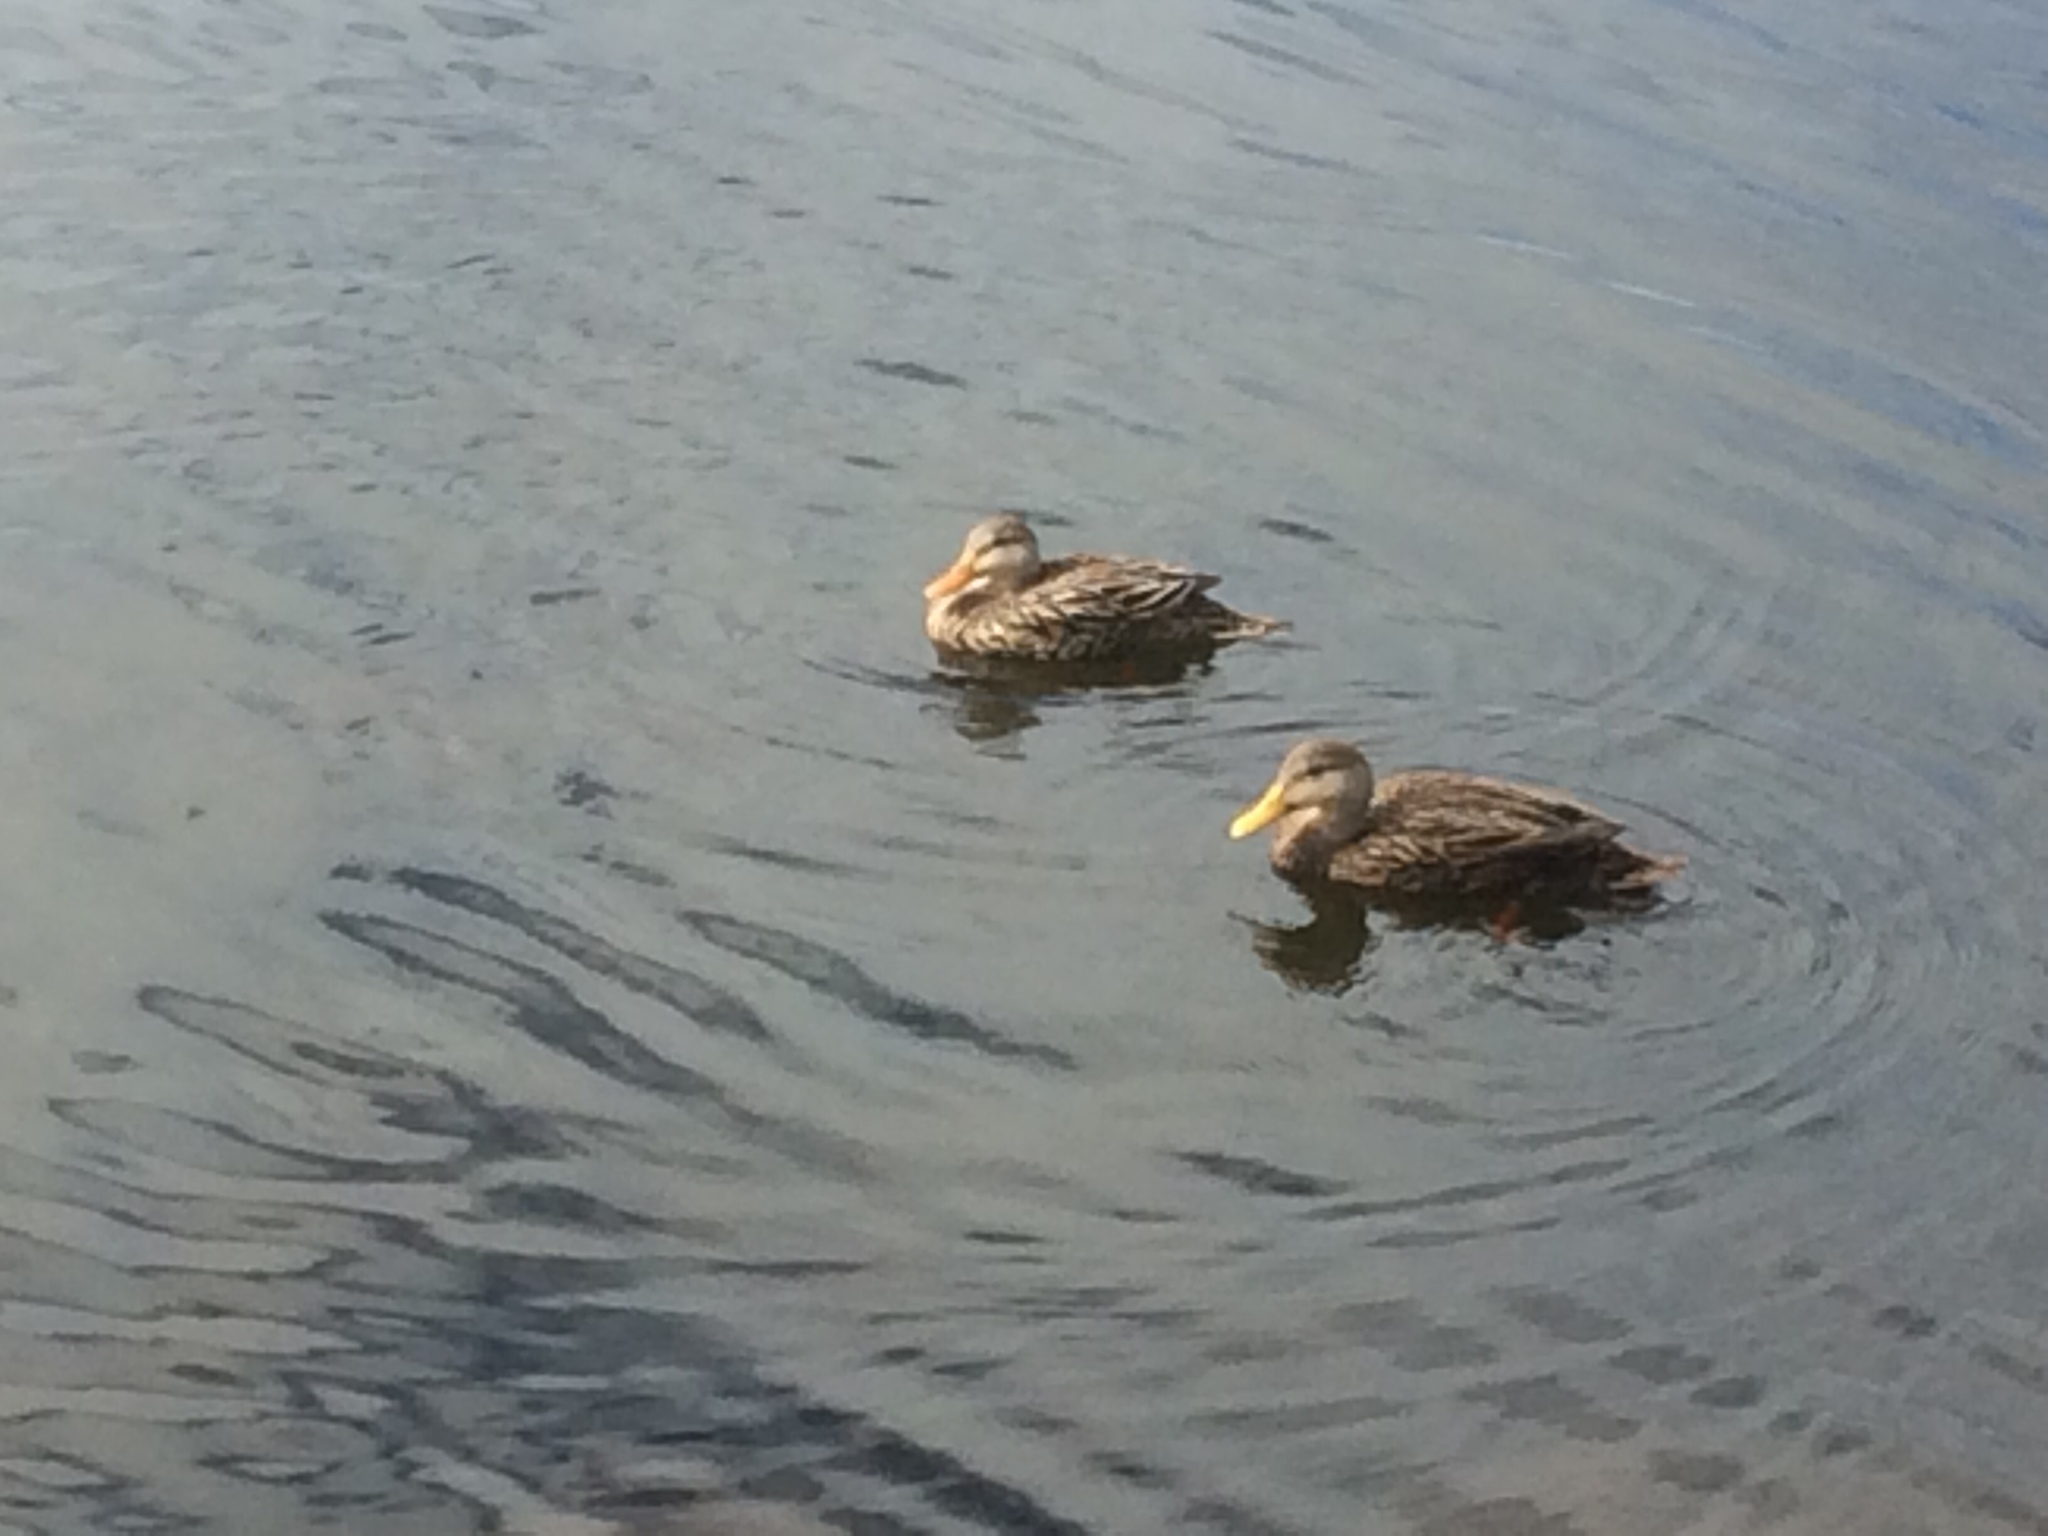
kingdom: Animalia
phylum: Chordata
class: Aves
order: Anseriformes
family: Anatidae
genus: Anas
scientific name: Anas fulvigula
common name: Mottled duck
